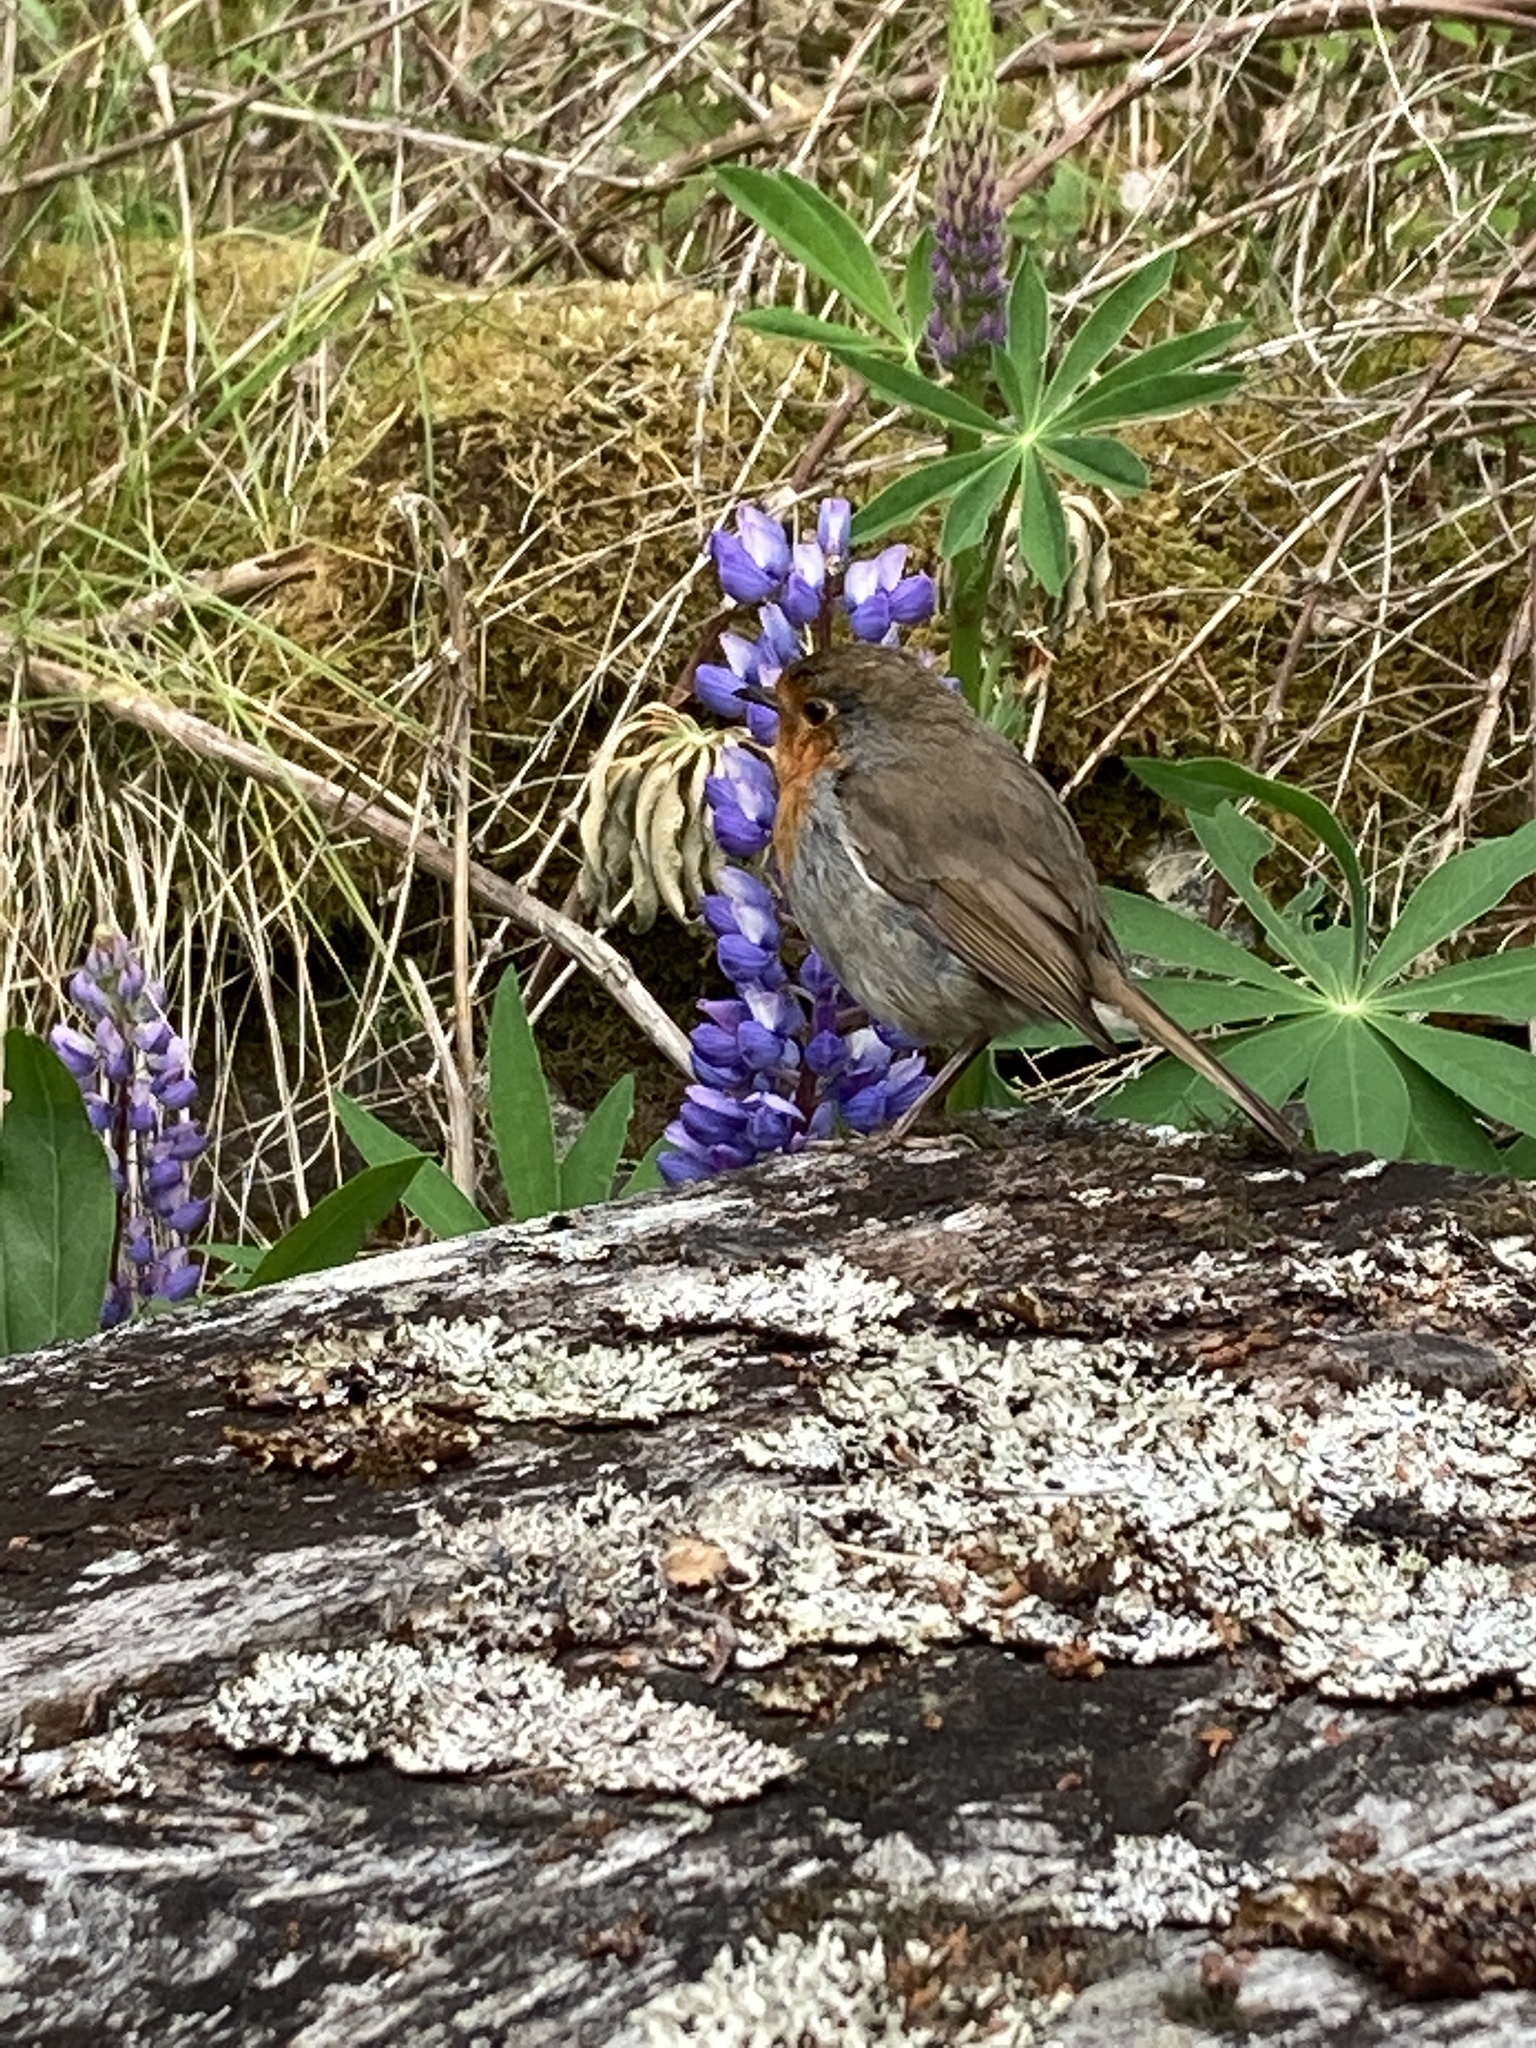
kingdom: Animalia
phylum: Chordata
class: Aves
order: Passeriformes
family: Muscicapidae
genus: Erithacus
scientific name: Erithacus rubecula
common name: European robin
